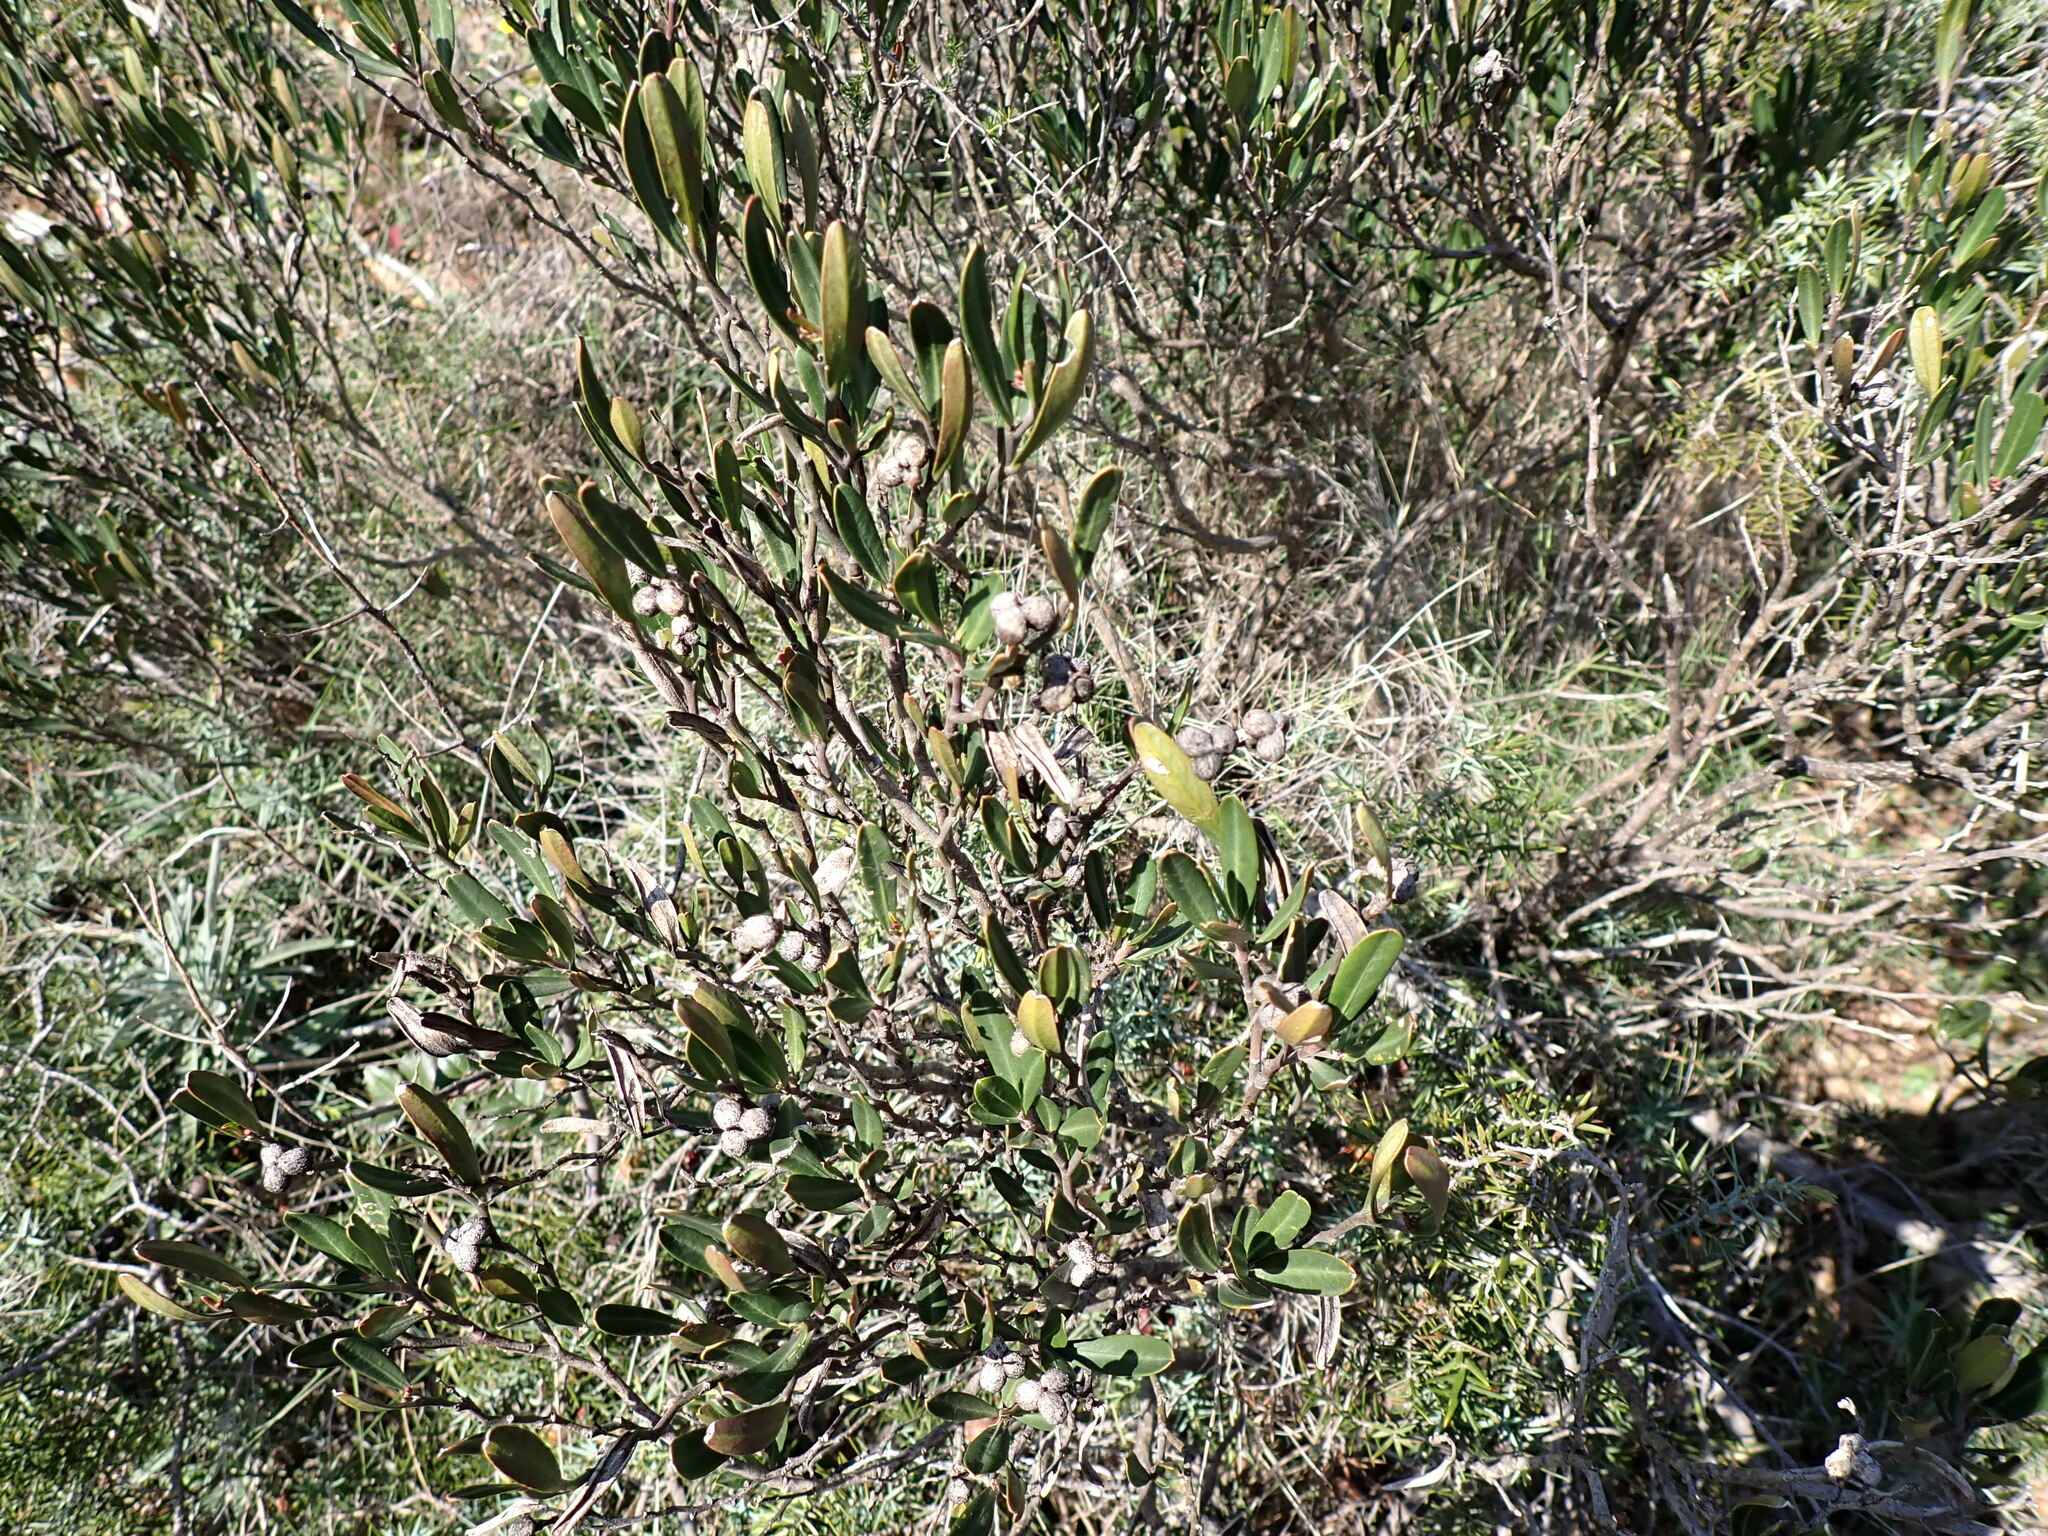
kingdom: Plantae
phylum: Tracheophyta
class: Magnoliopsida
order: Sapindales
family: Rutaceae
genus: Cneorum
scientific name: Cneorum tricoccon
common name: Spurge olive
